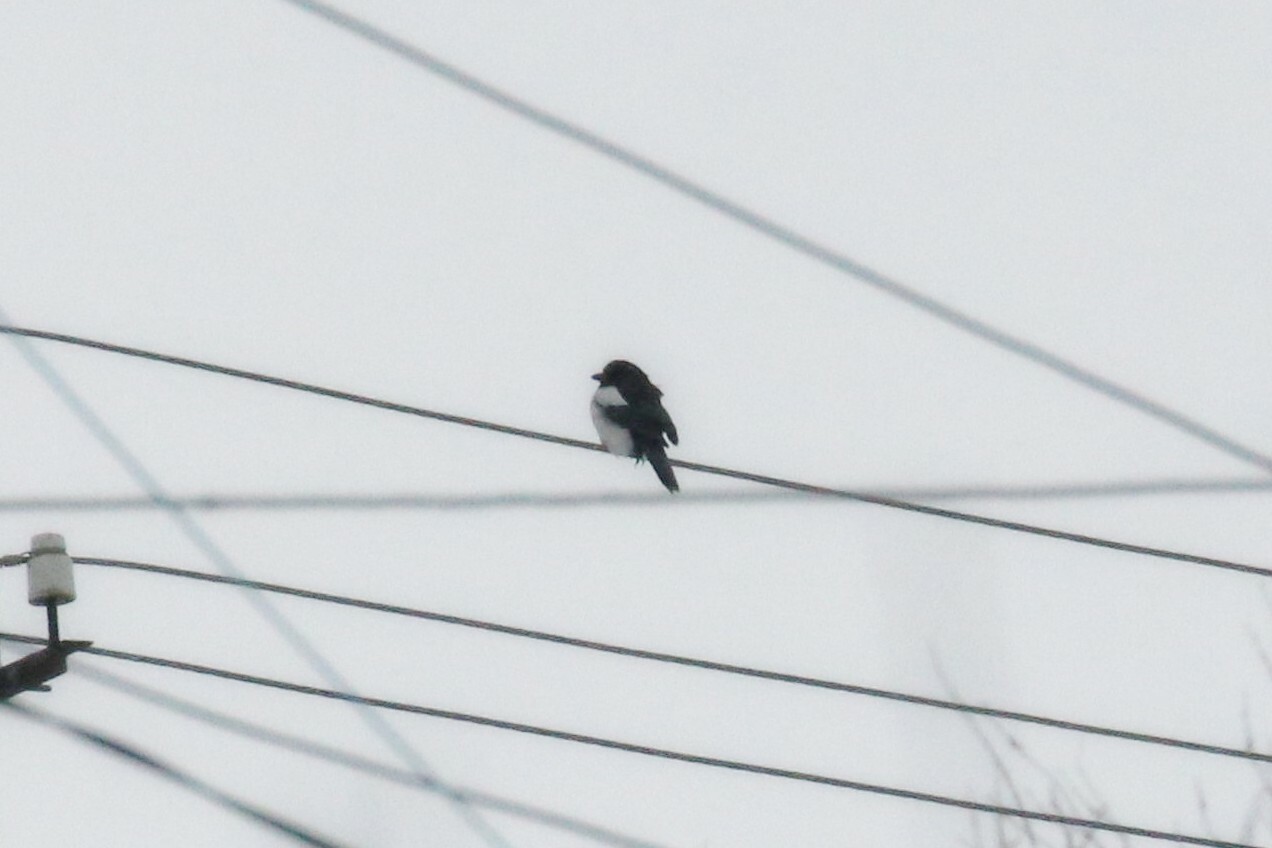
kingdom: Animalia
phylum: Chordata
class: Aves
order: Passeriformes
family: Corvidae
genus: Pica
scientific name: Pica pica
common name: Eurasian magpie
